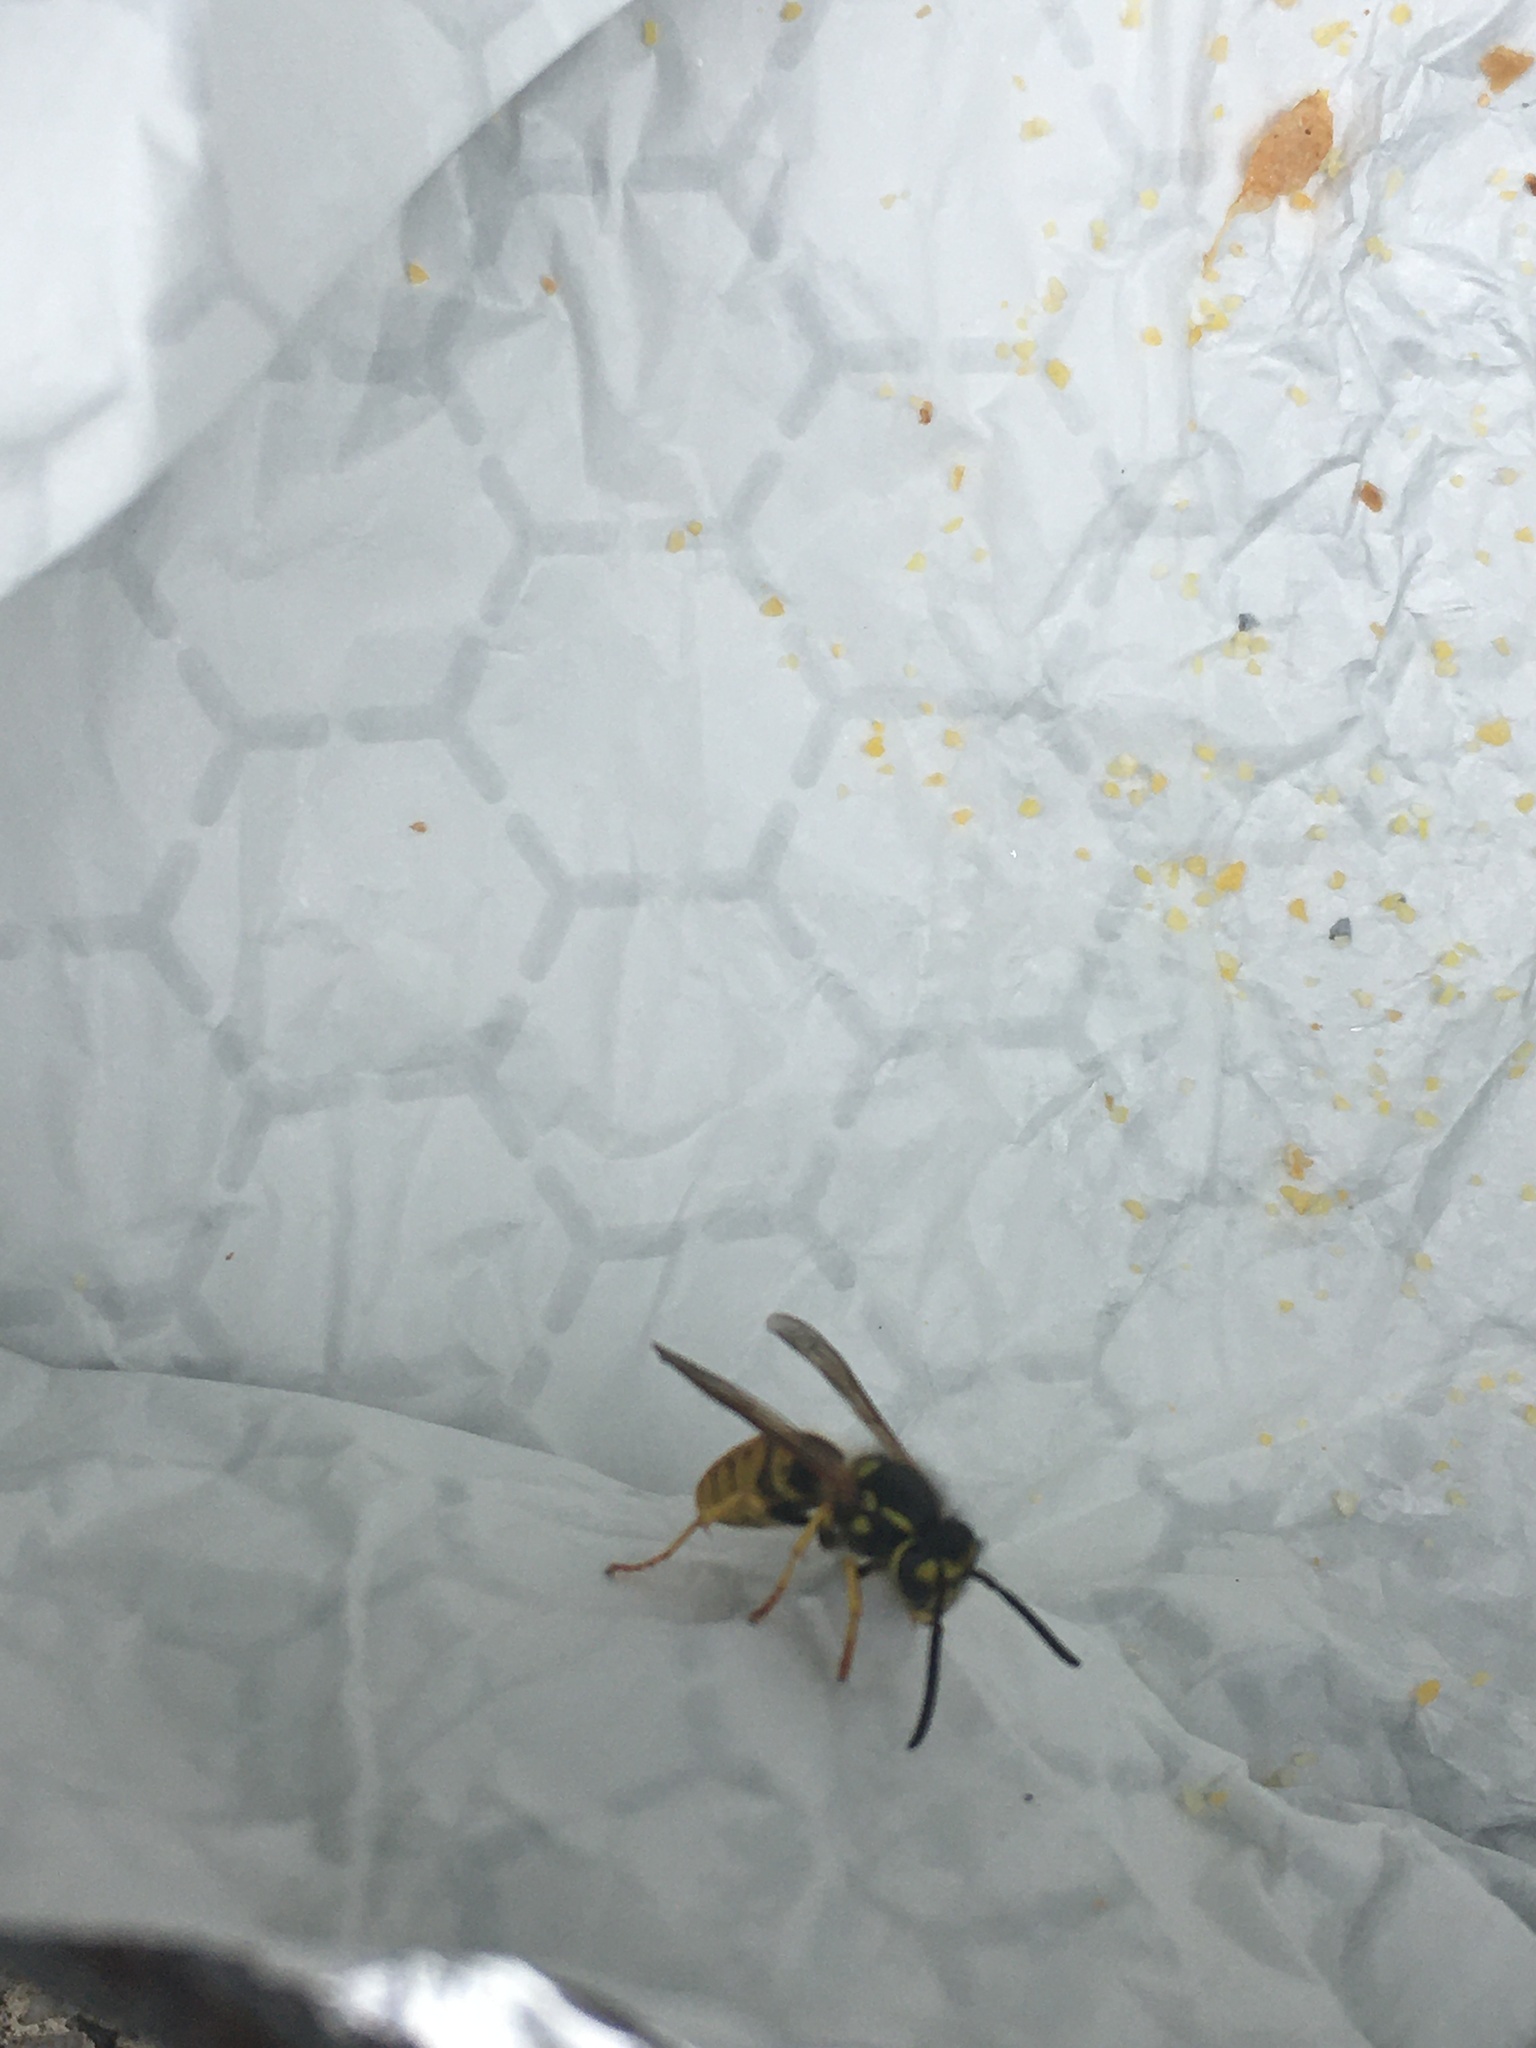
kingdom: Animalia
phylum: Arthropoda
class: Insecta
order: Hymenoptera
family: Vespidae
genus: Vespula
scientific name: Vespula germanica
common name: German wasp
